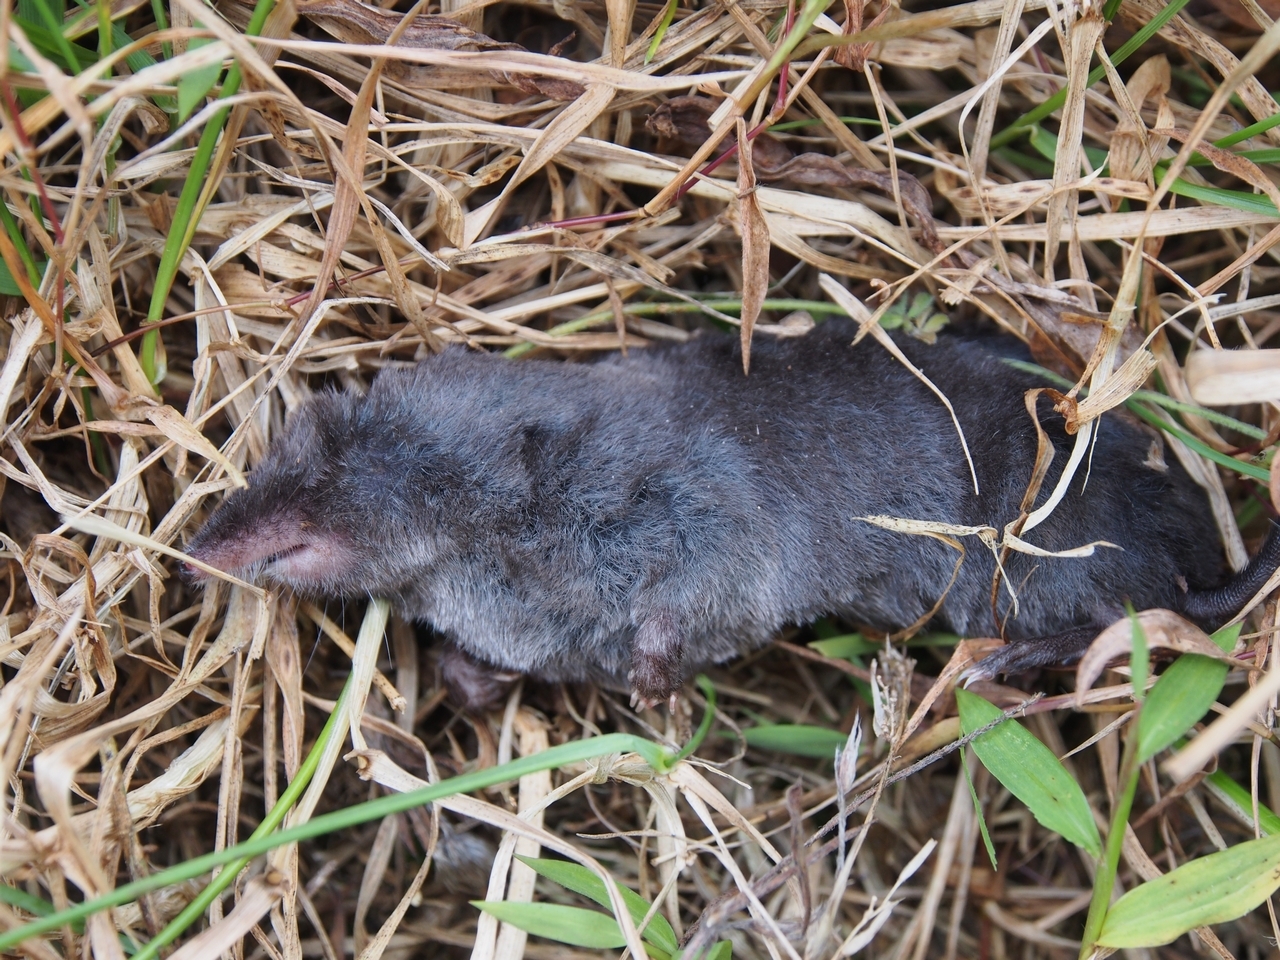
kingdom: Animalia
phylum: Chordata
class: Mammalia
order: Soricomorpha
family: Soricidae
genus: Blarina
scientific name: Blarina brevicauda
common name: Northern short-tailed shrew
